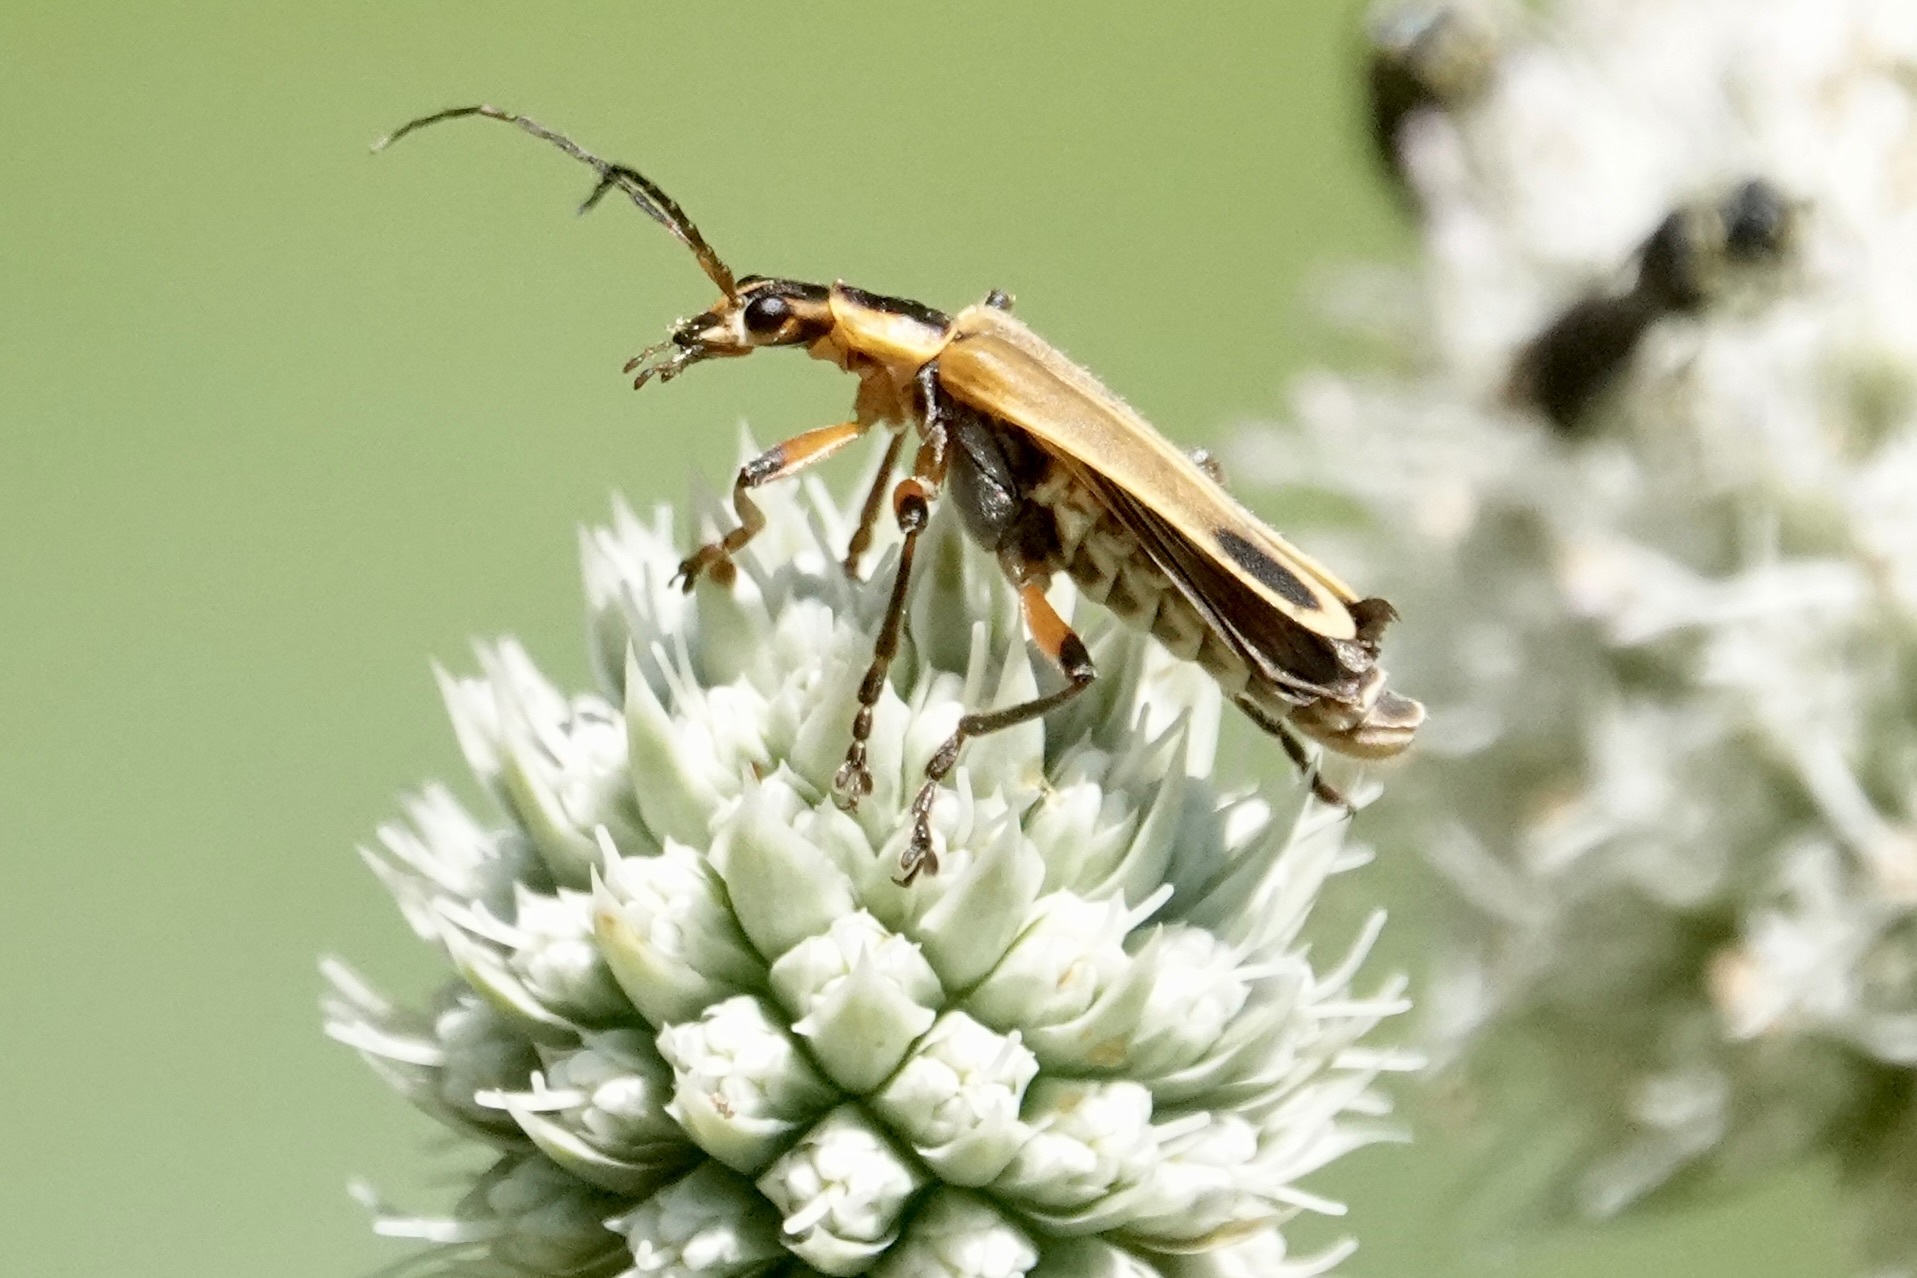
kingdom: Animalia
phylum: Arthropoda
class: Insecta
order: Coleoptera
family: Cantharidae
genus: Chauliognathus
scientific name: Chauliognathus marginatus
